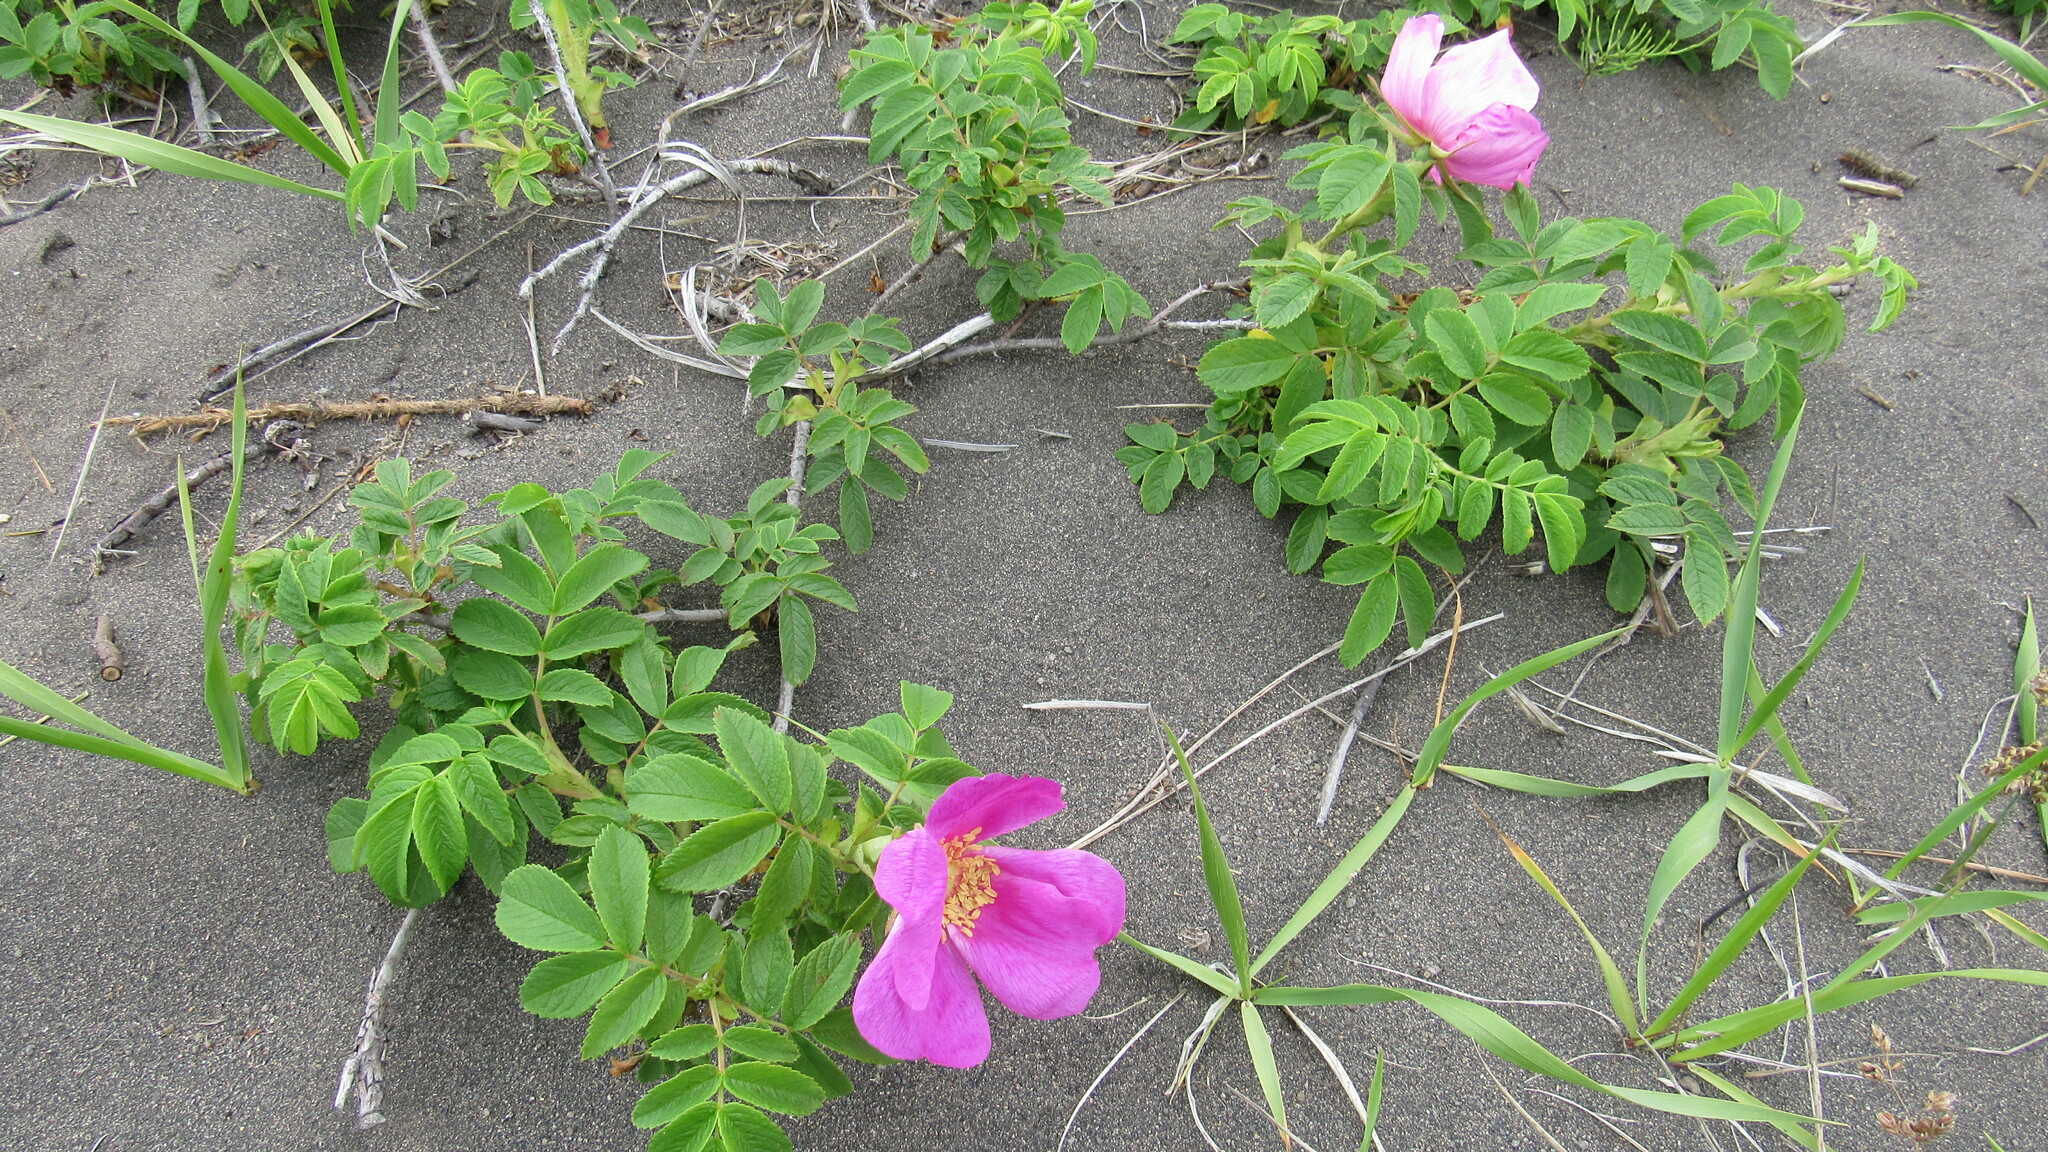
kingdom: Plantae
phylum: Tracheophyta
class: Magnoliopsida
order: Rosales
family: Rosaceae
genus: Rosa
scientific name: Rosa rugosa
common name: Japanese rose
